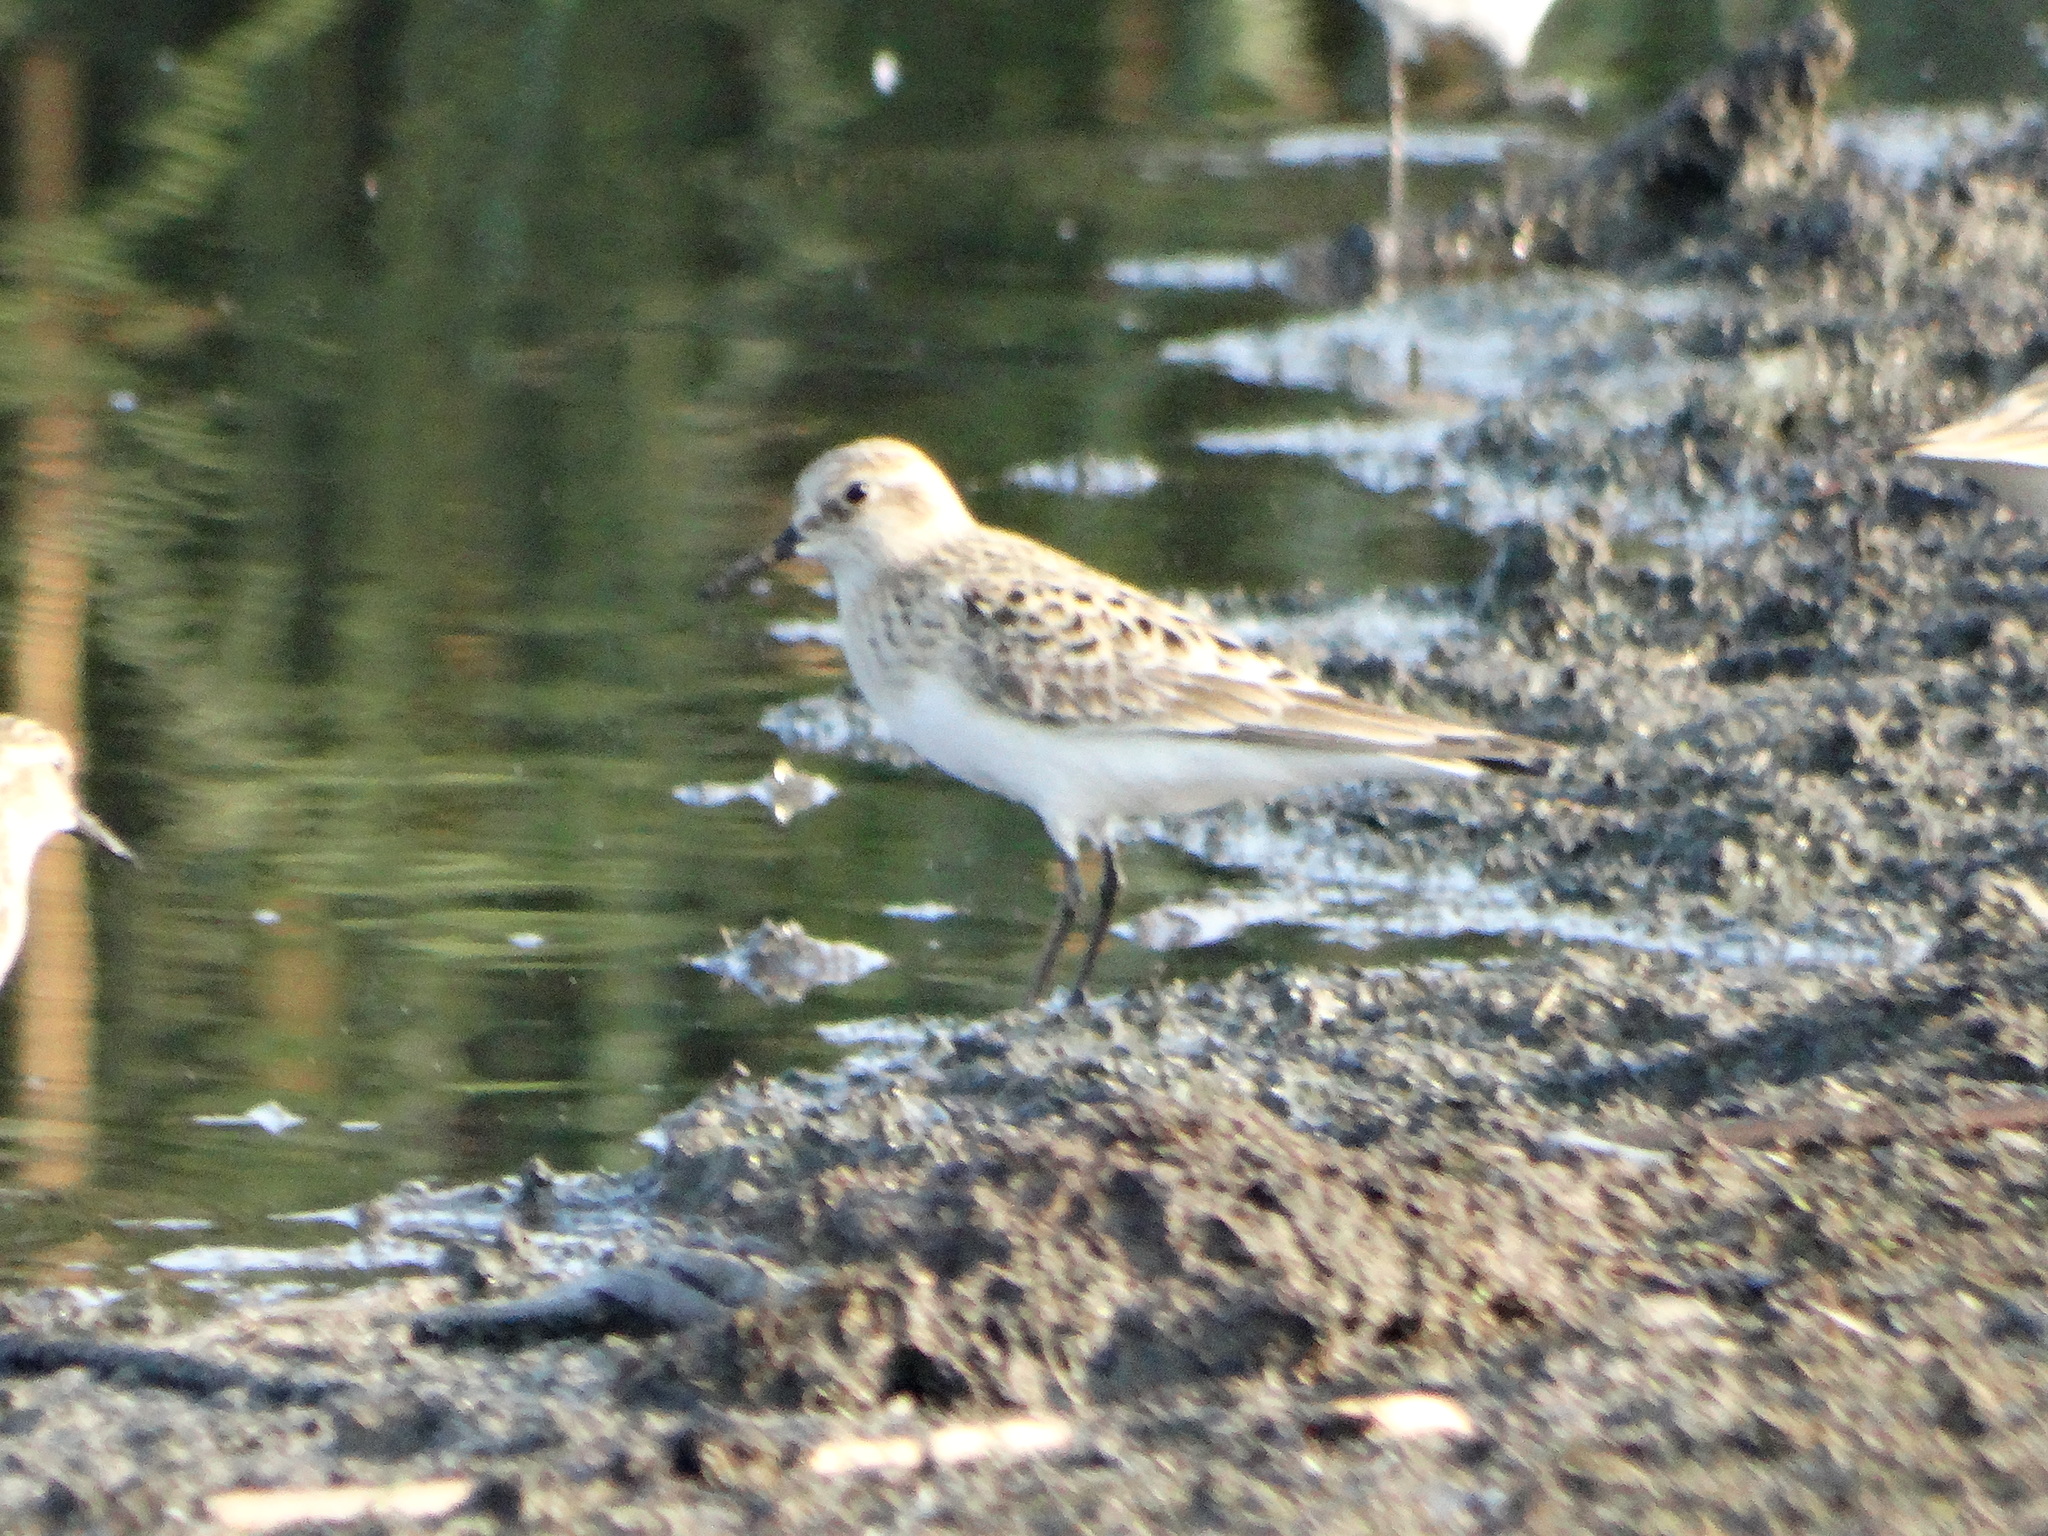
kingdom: Animalia
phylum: Chordata
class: Aves
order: Charadriiformes
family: Scolopacidae
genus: Calidris
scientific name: Calidris bairdii
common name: Baird's sandpiper
